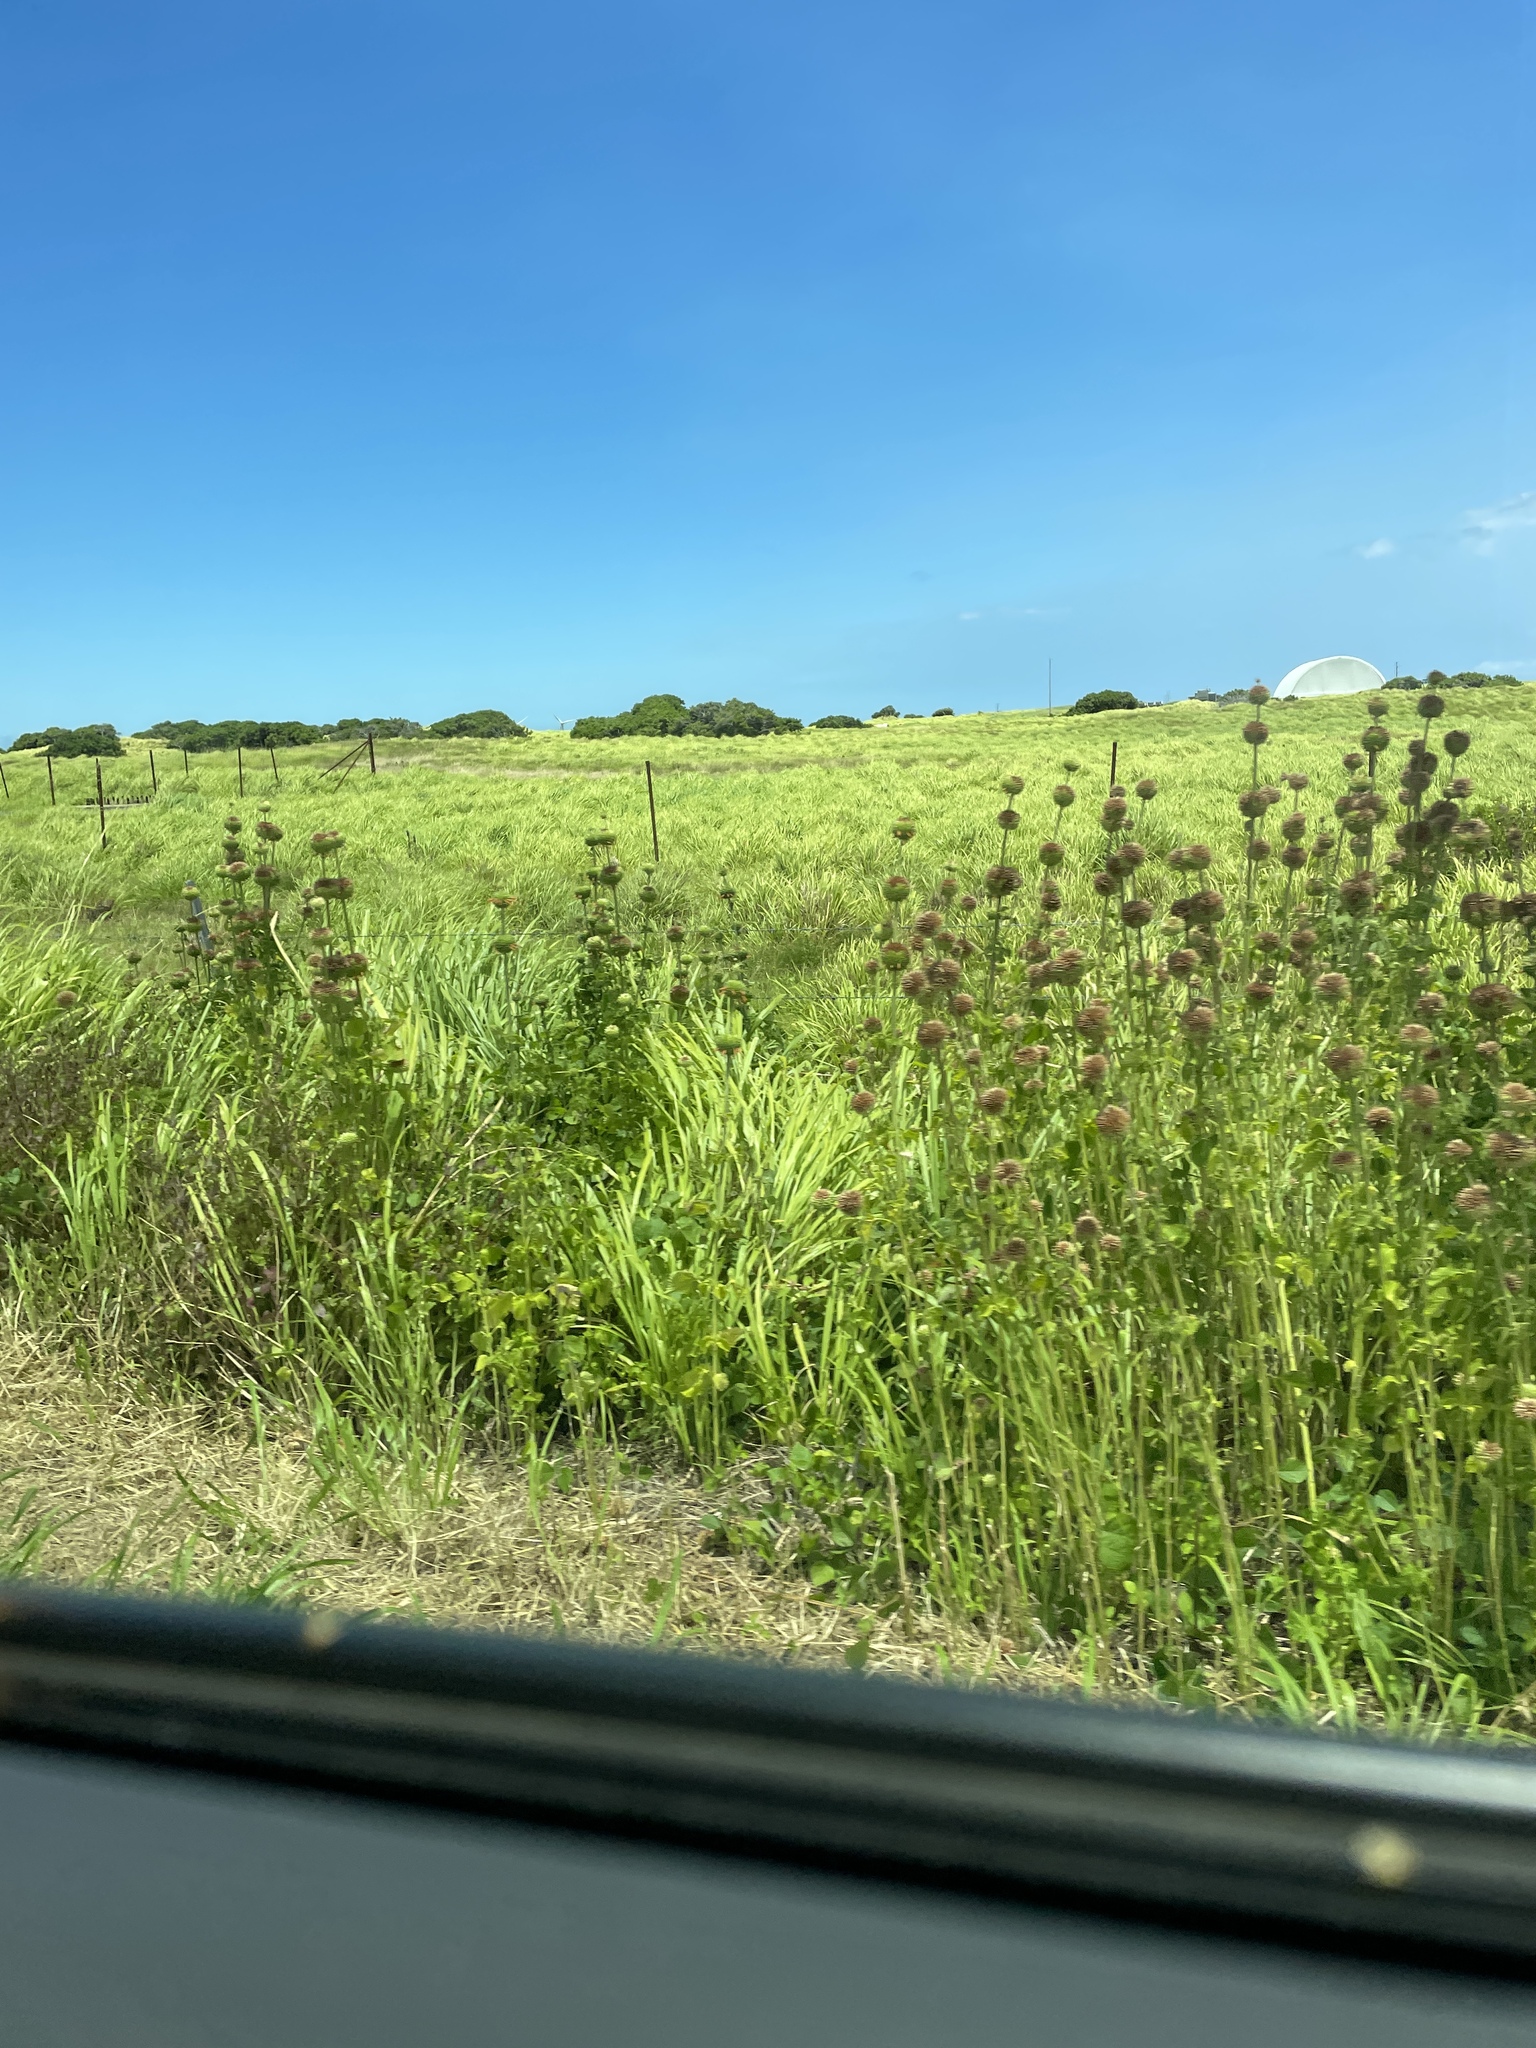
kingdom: Plantae
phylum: Tracheophyta
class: Magnoliopsida
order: Lamiales
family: Lamiaceae
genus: Leonotis
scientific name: Leonotis nepetifolia
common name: Christmas candlestick
